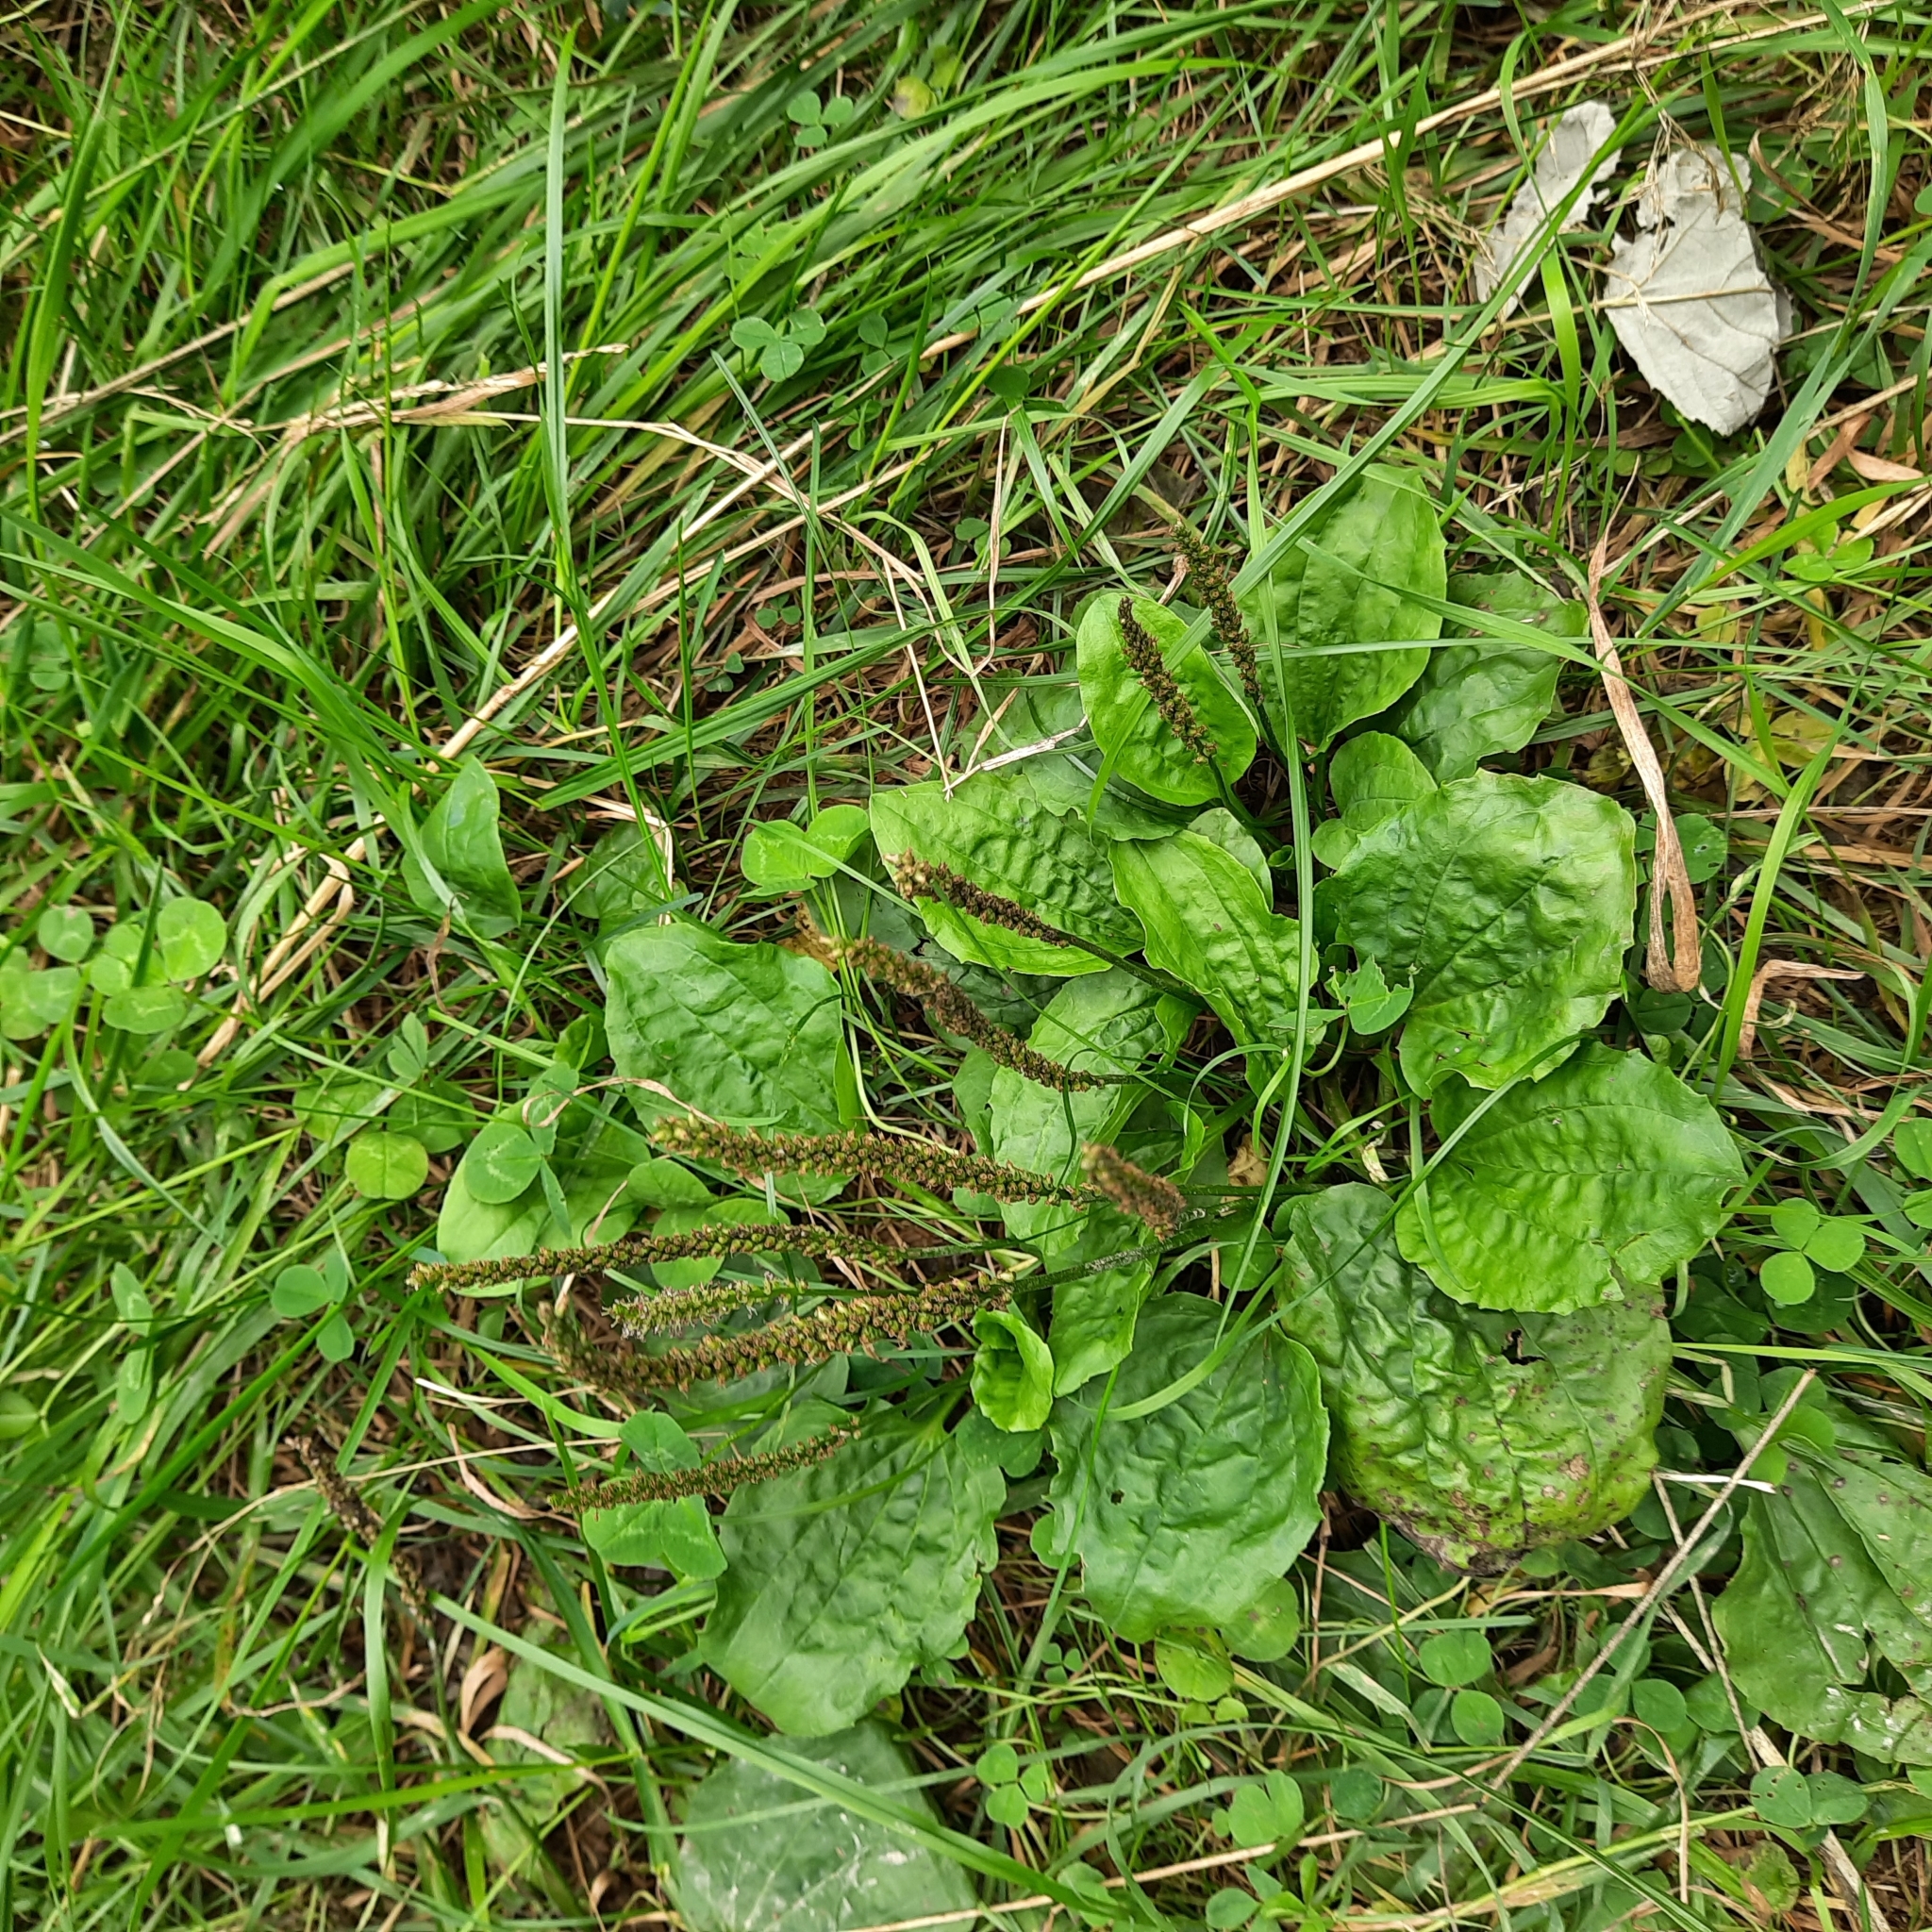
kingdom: Plantae
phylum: Tracheophyta
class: Magnoliopsida
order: Lamiales
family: Plantaginaceae
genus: Plantago
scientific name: Plantago major
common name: Common plantain
